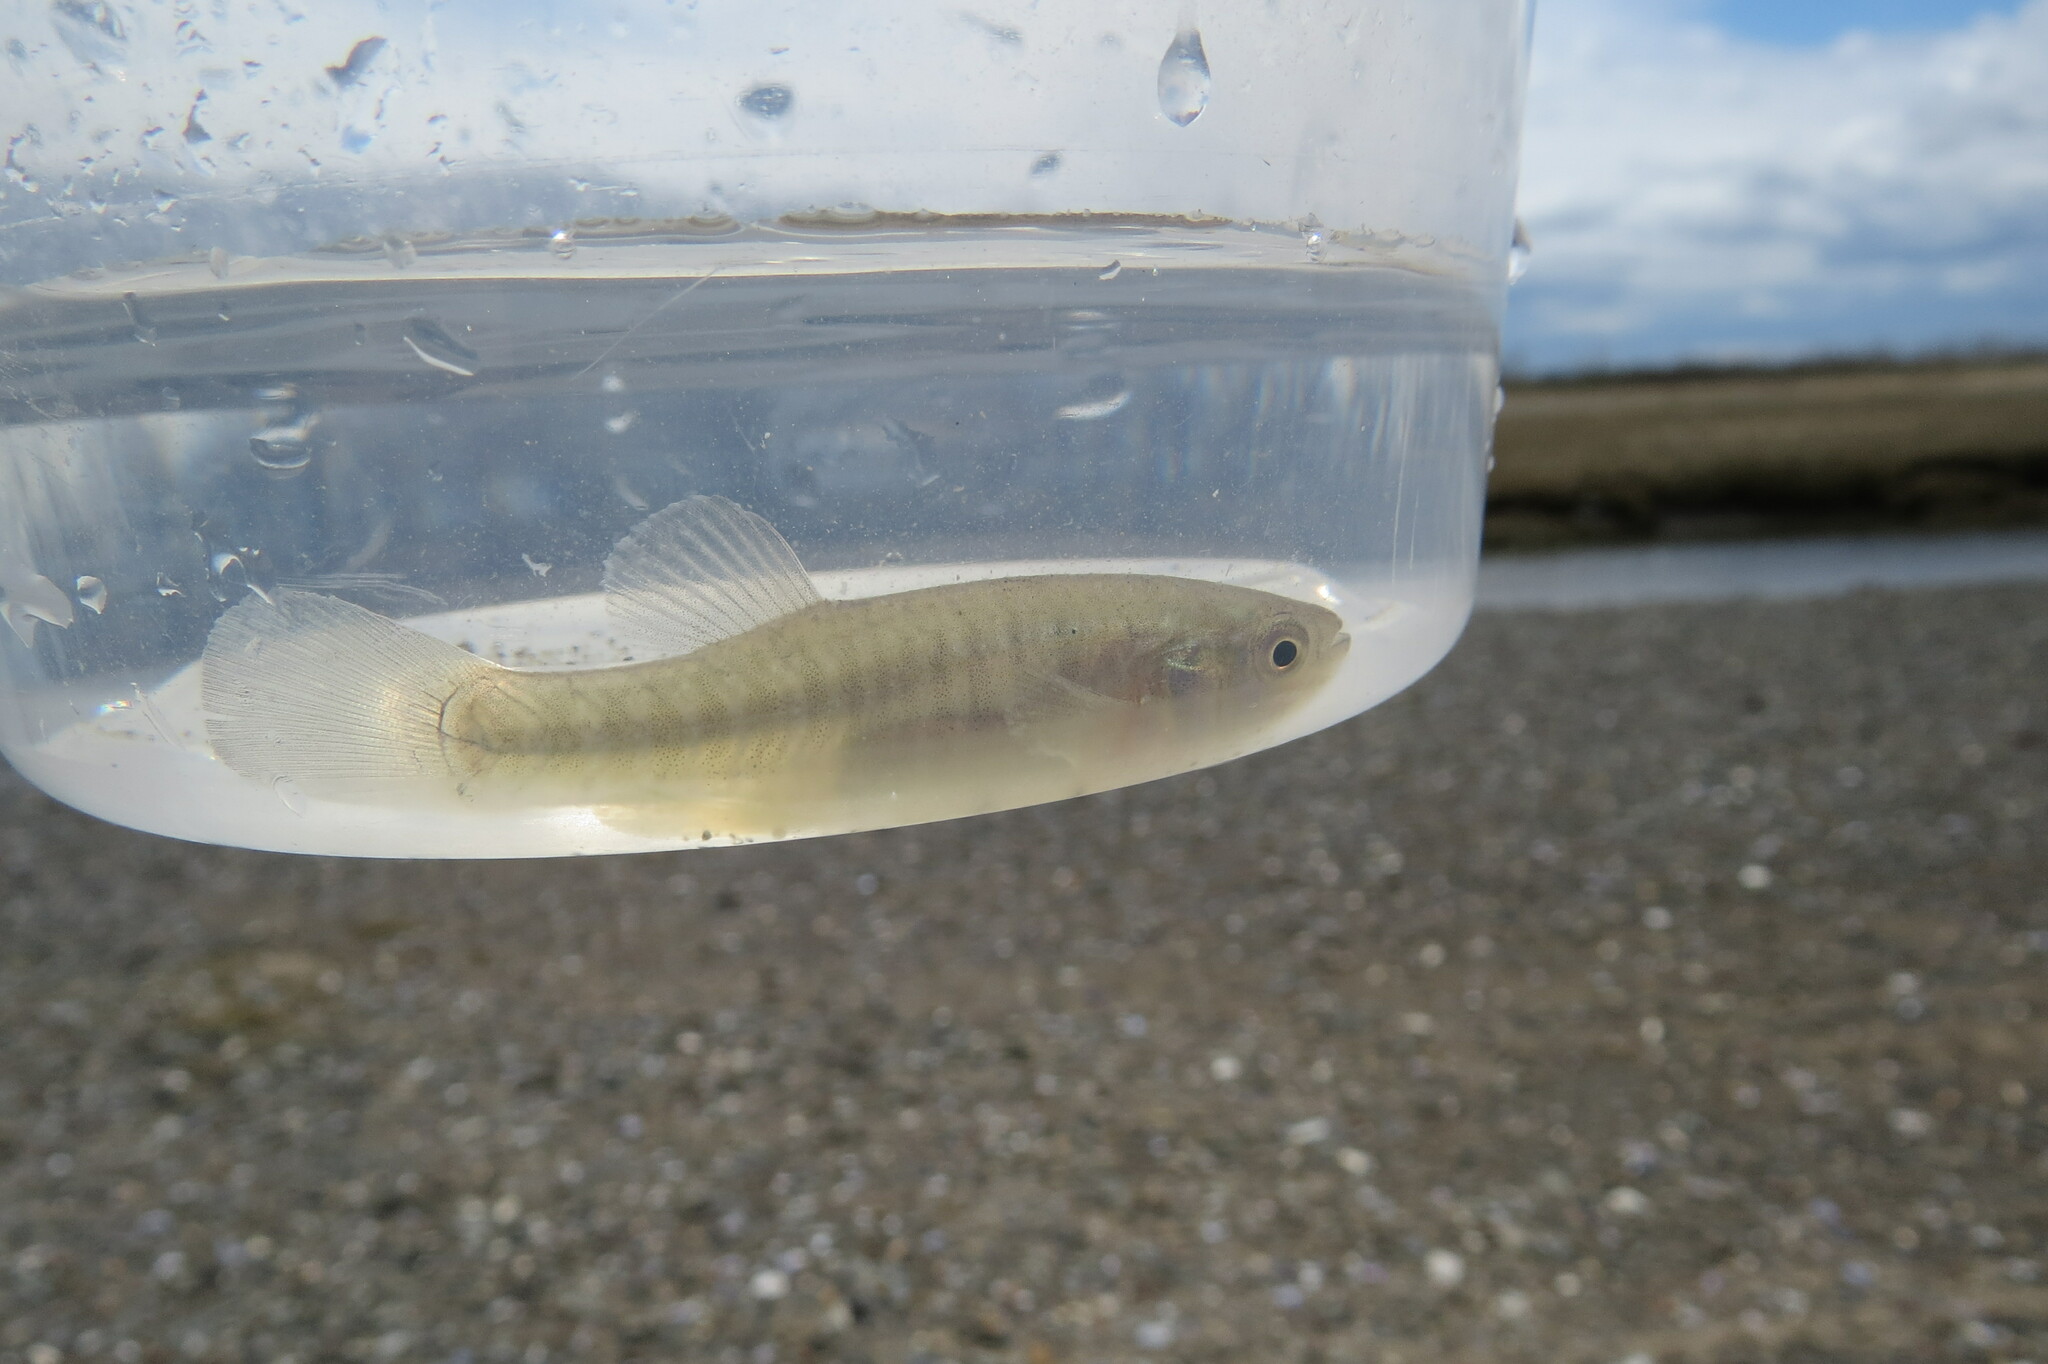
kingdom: Animalia
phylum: Chordata
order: Cyprinodontiformes
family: Fundulidae
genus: Fundulus
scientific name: Fundulus heteroclitus
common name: Mummichog
